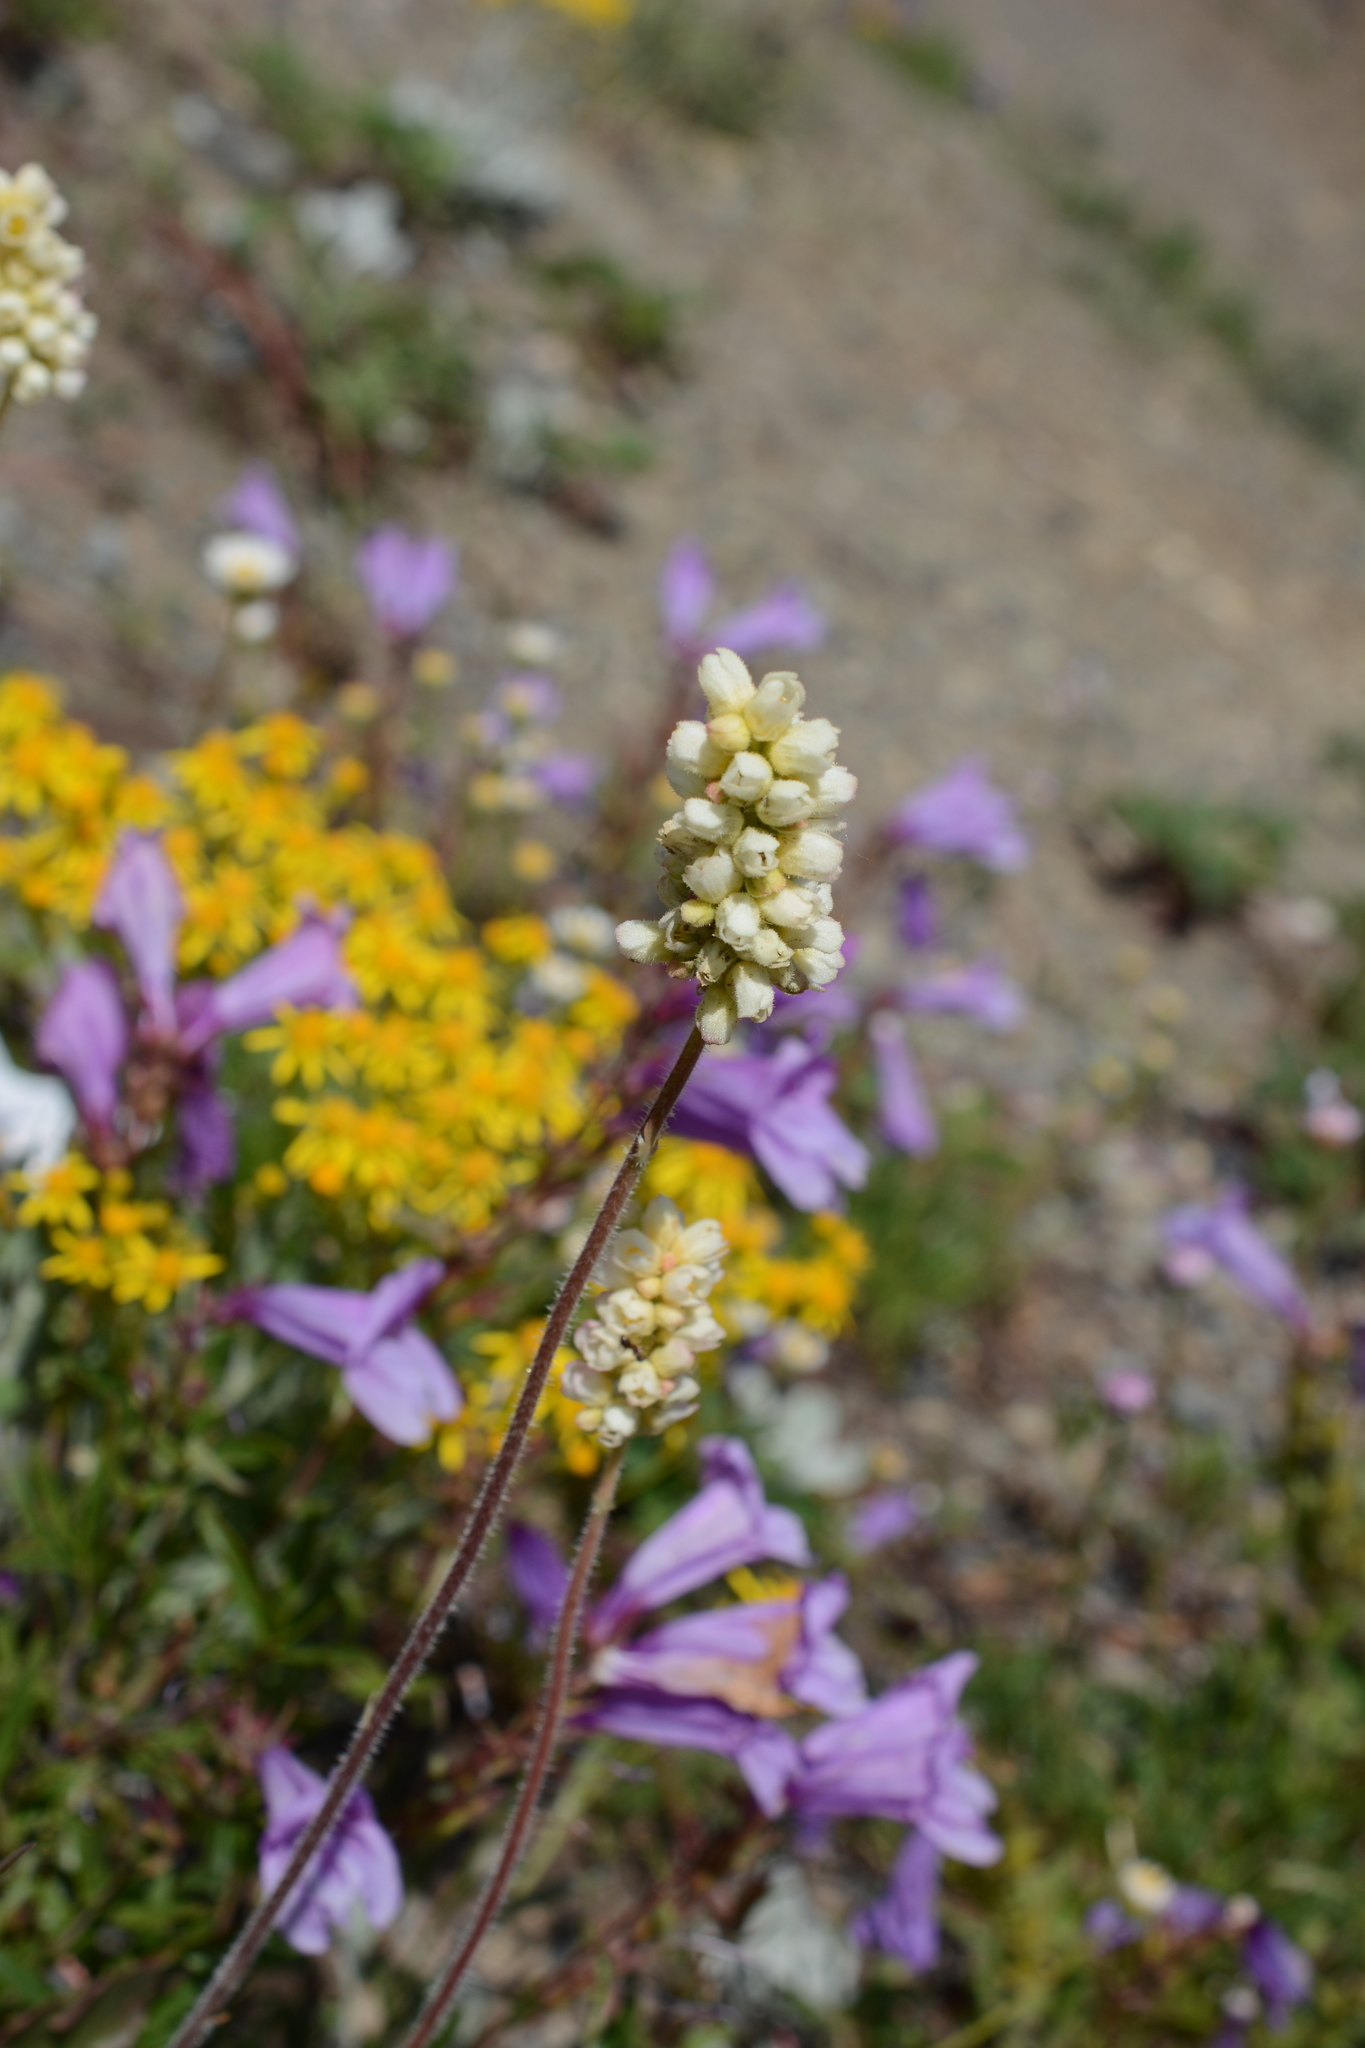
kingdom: Plantae
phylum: Tracheophyta
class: Magnoliopsida
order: Saxifragales
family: Saxifragaceae
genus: Heuchera
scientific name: Heuchera cylindrica
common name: Mat alumroot
